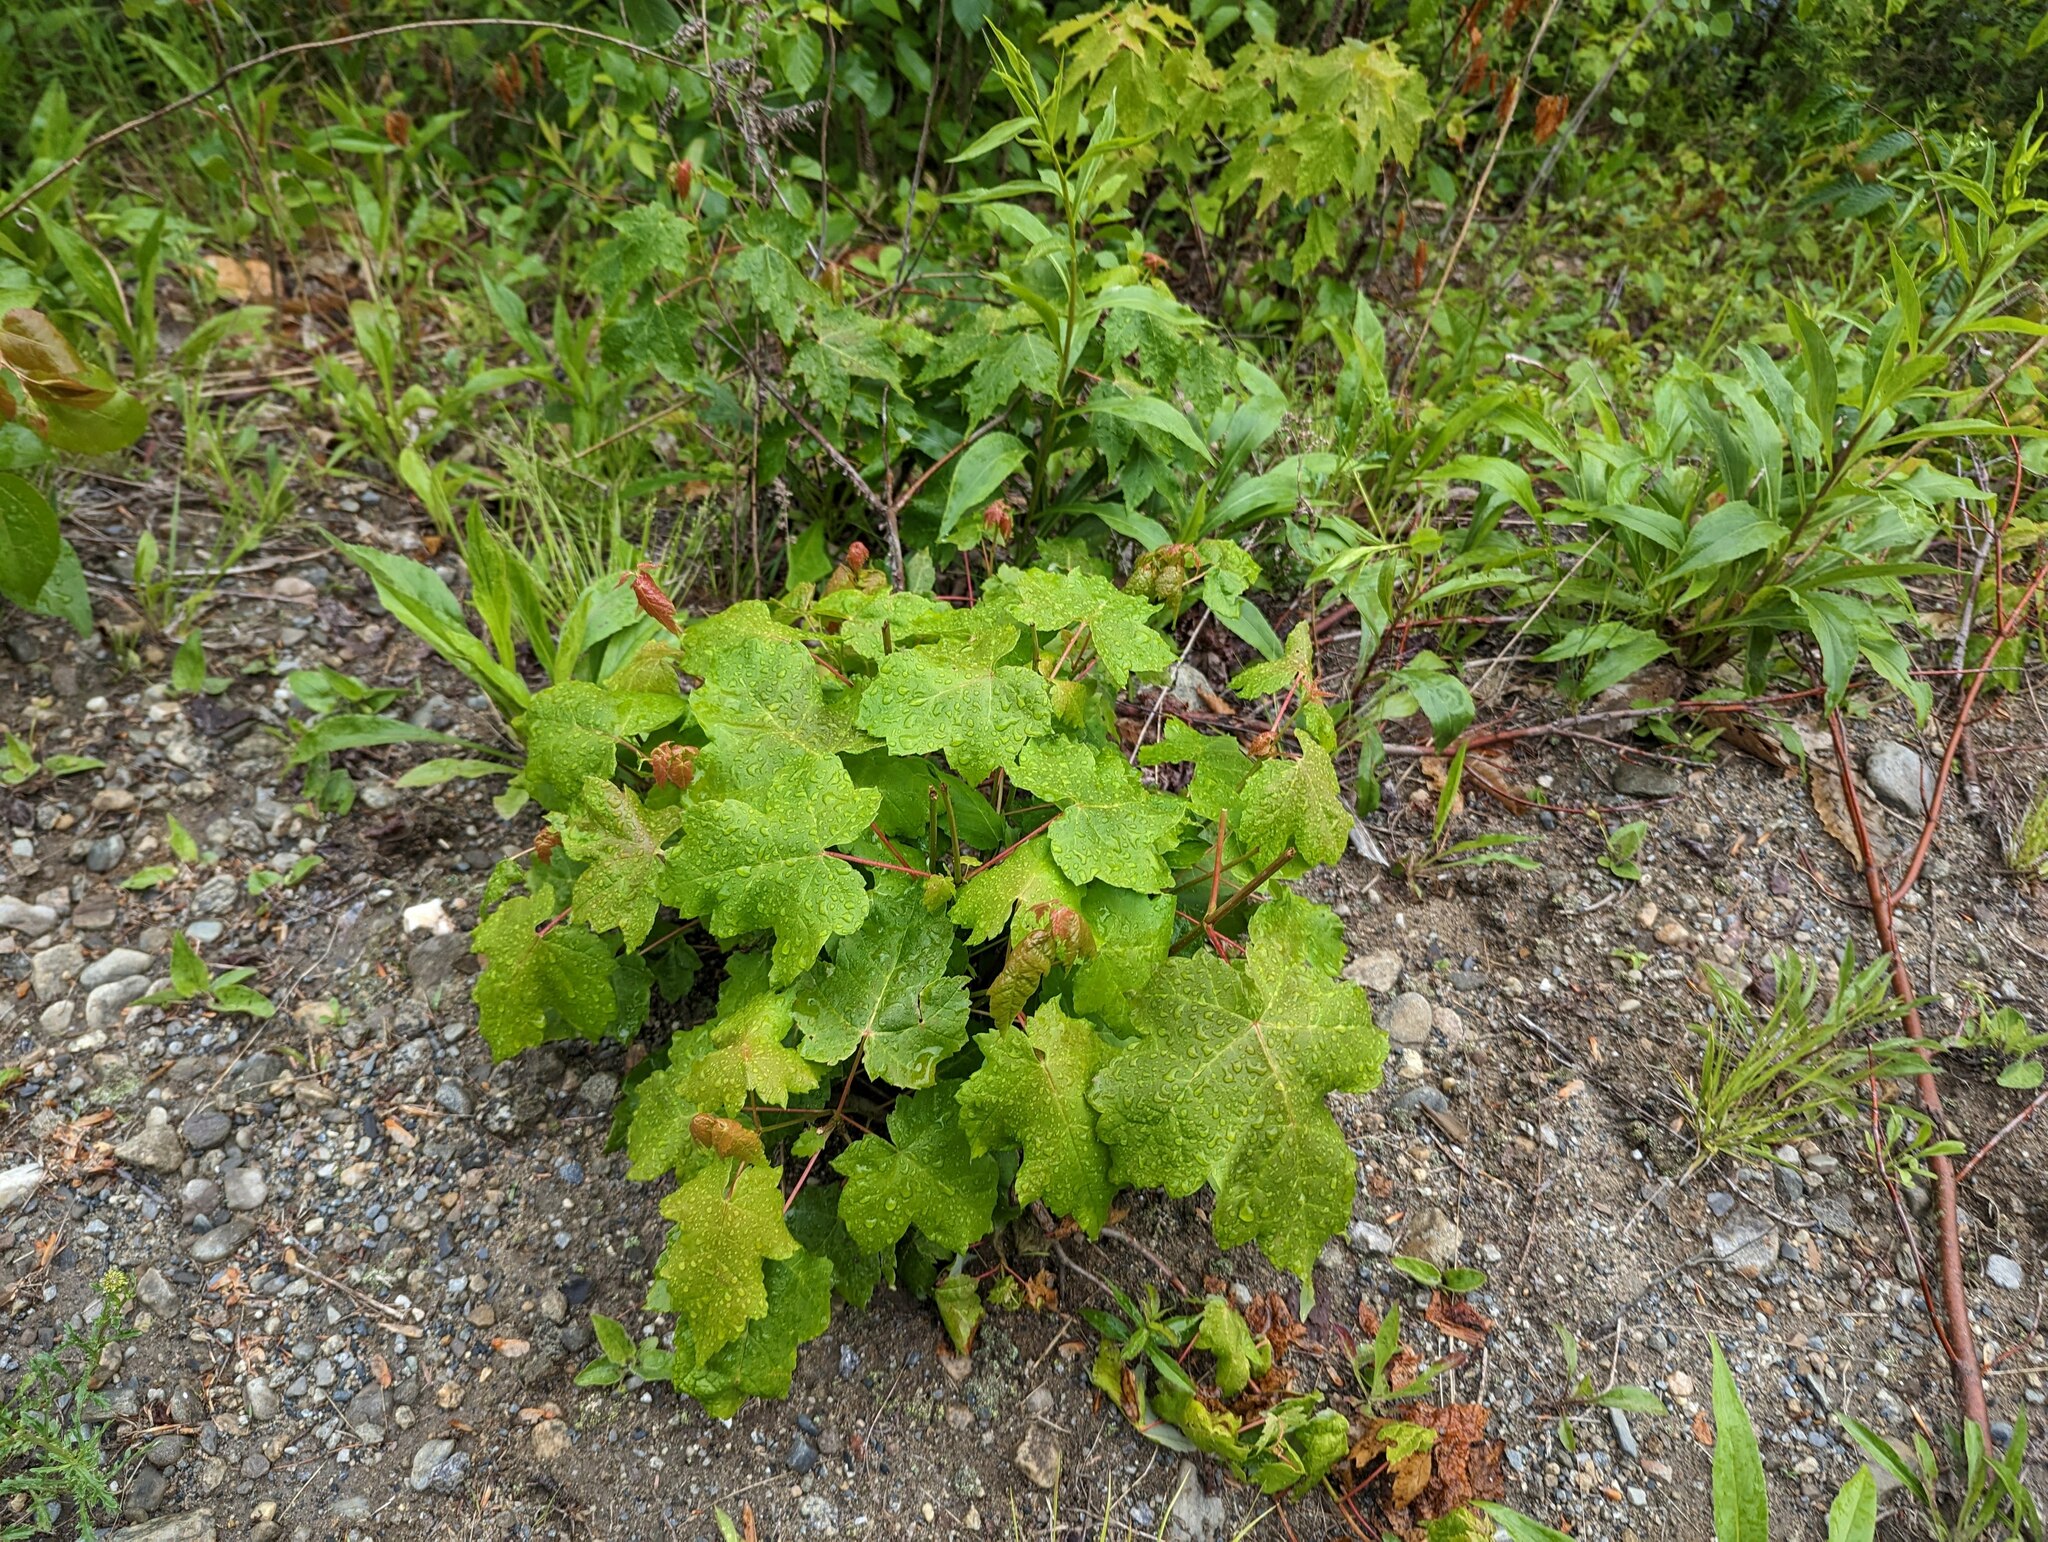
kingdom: Plantae
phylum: Tracheophyta
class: Magnoliopsida
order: Sapindales
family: Sapindaceae
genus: Acer
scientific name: Acer rubrum
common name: Red maple
